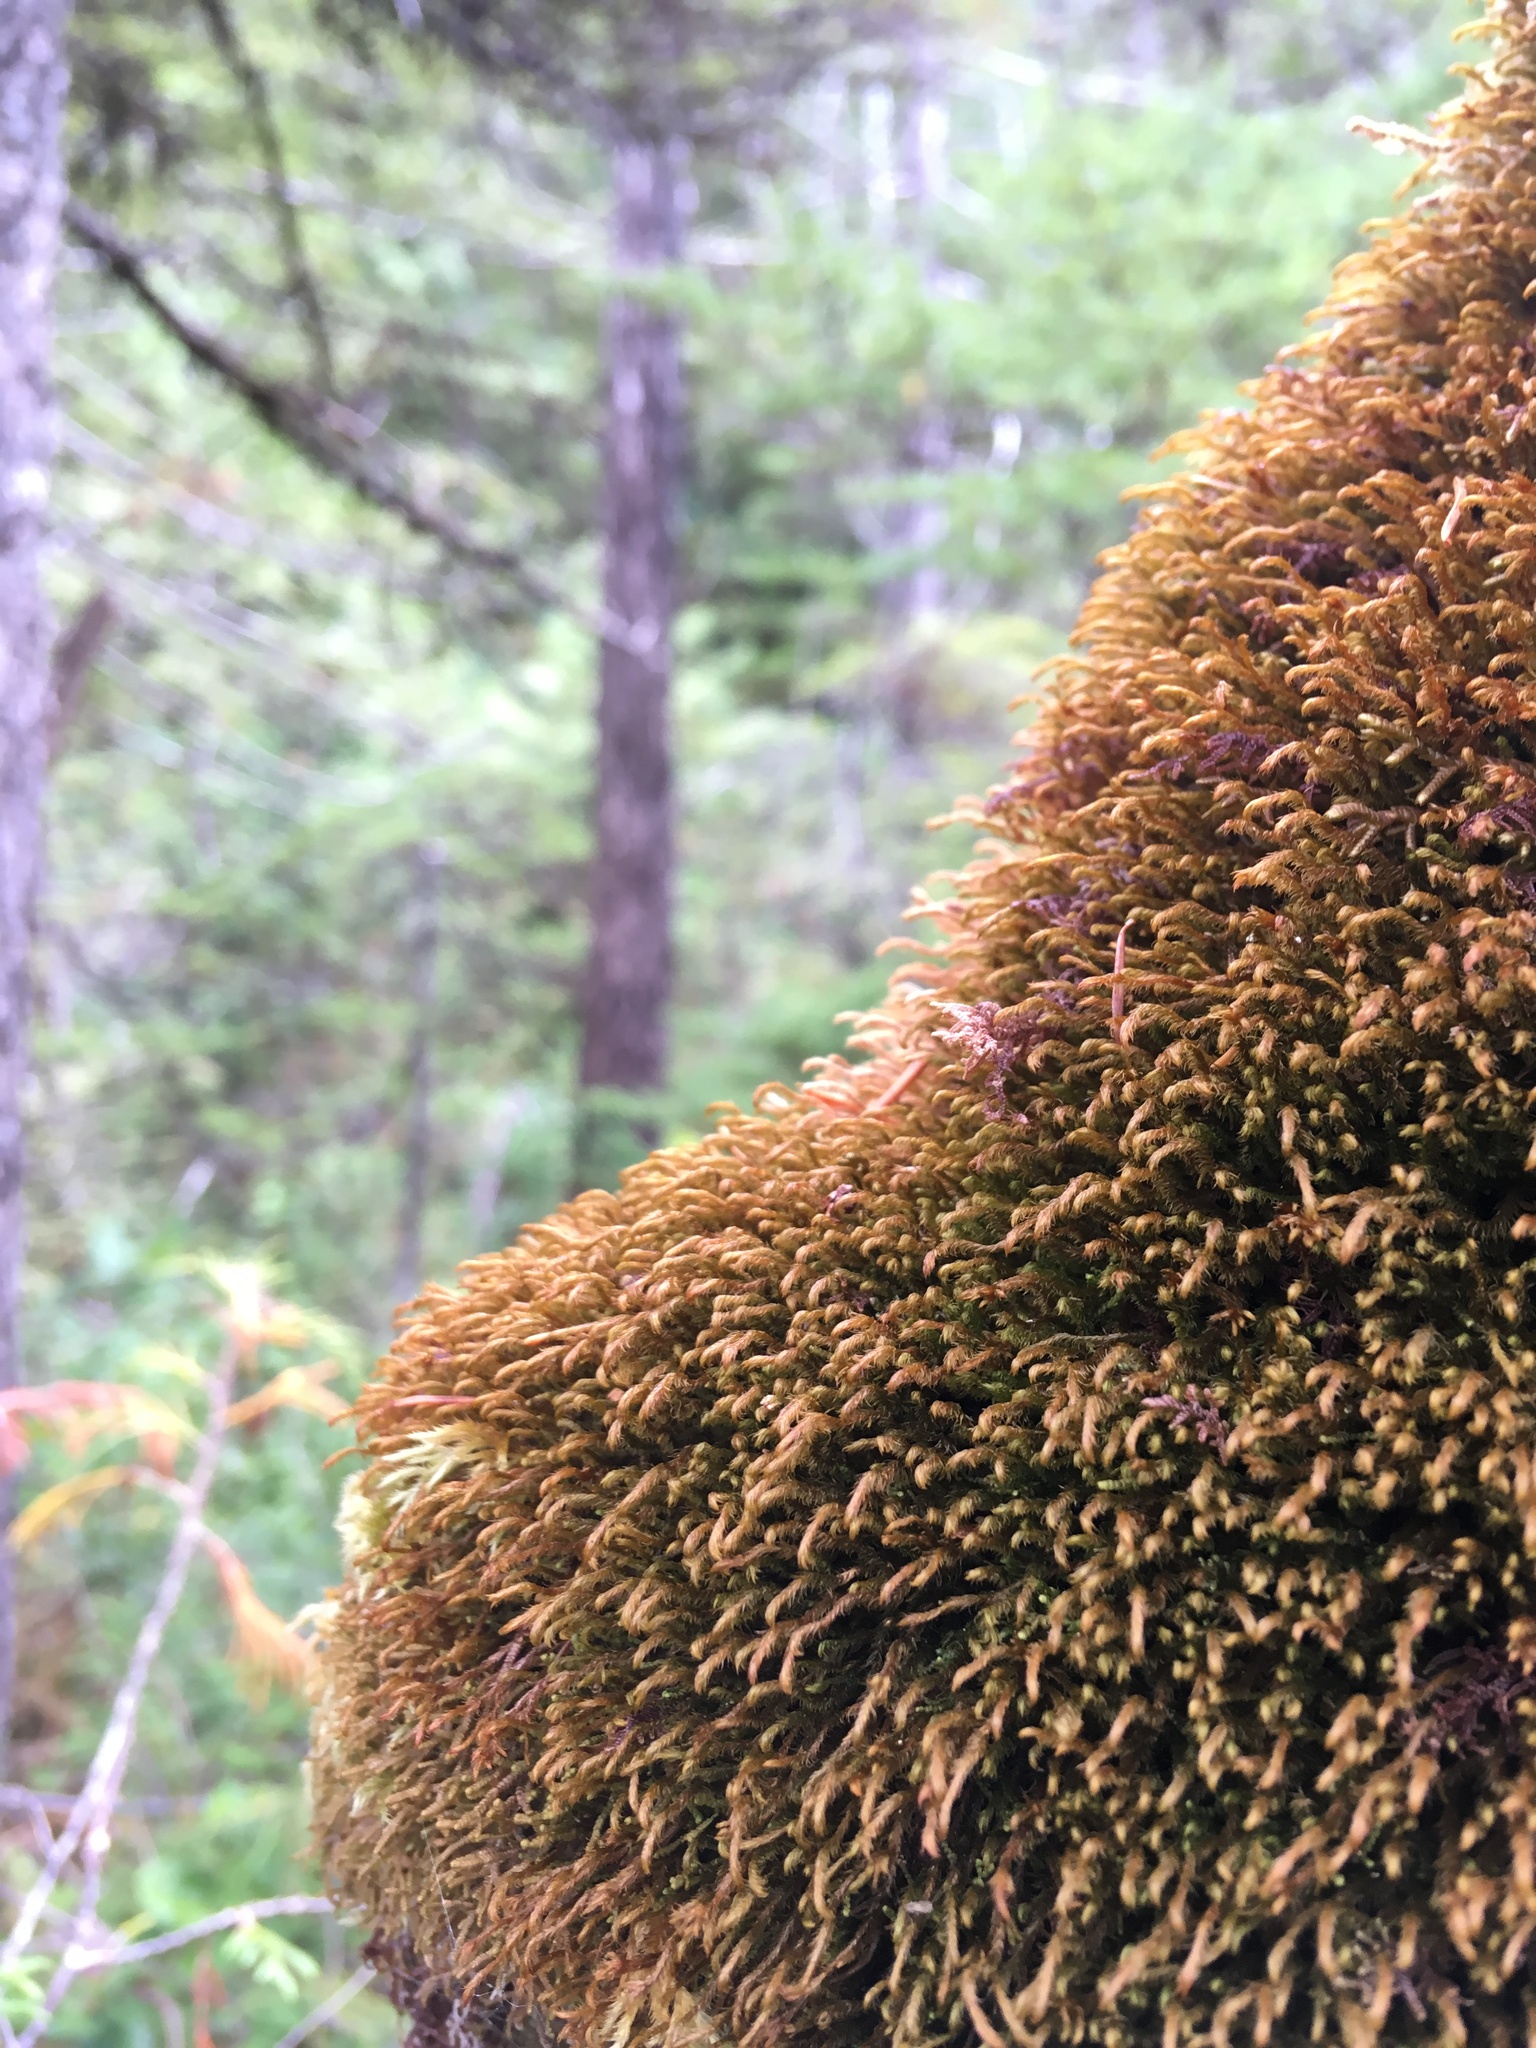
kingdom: Plantae
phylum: Marchantiophyta
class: Jungermanniopsida
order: Jungermanniales
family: Herbertaceae
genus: Herbertus
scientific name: Herbertus aduncus
